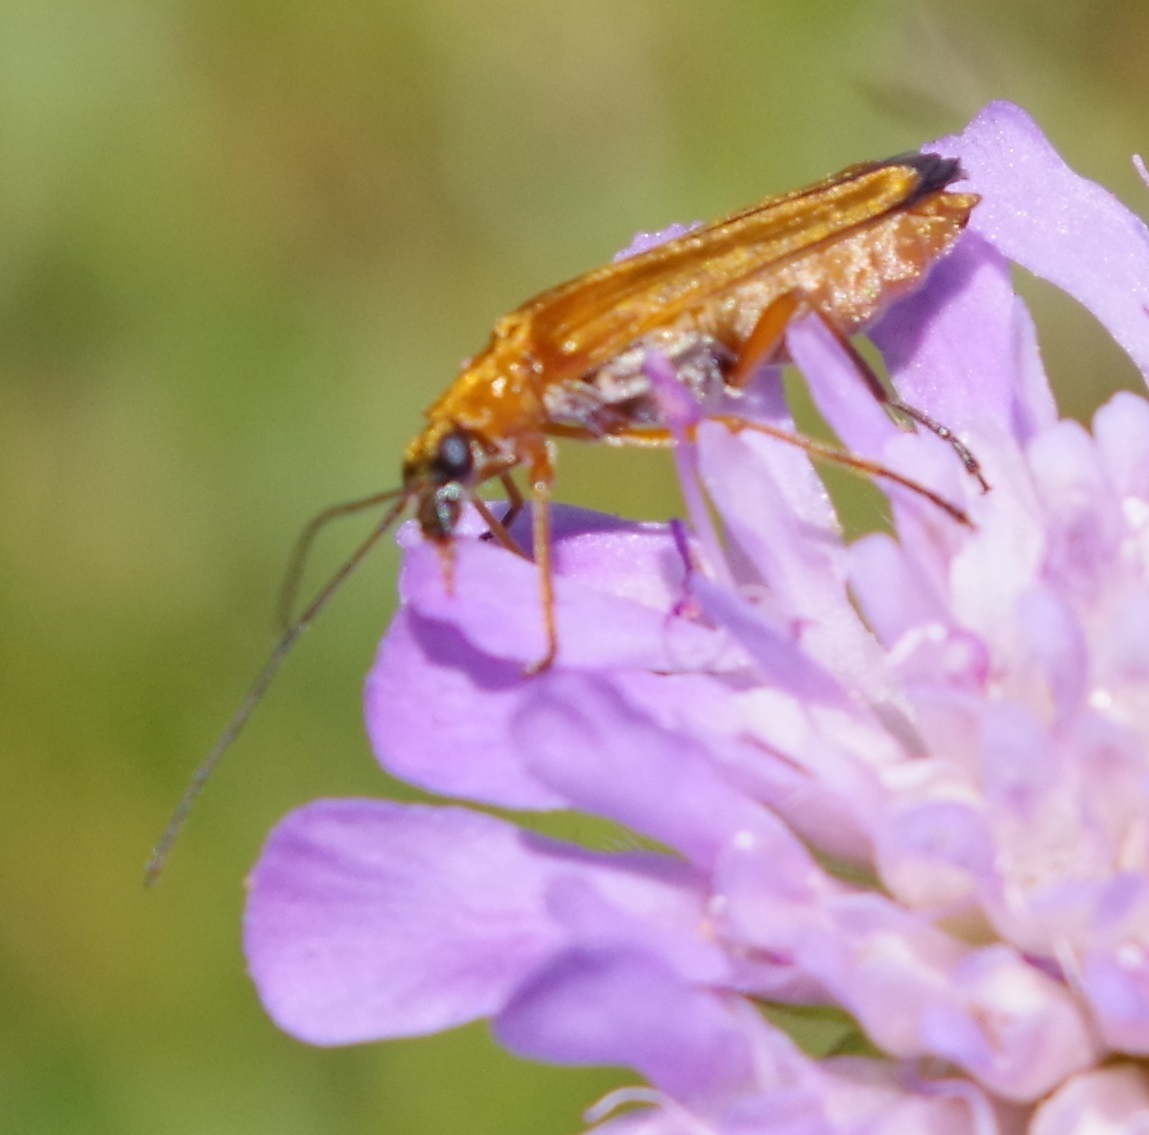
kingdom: Animalia
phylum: Arthropoda
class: Insecta
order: Coleoptera
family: Oedemeridae
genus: Oedemera
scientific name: Oedemera podagrariae
